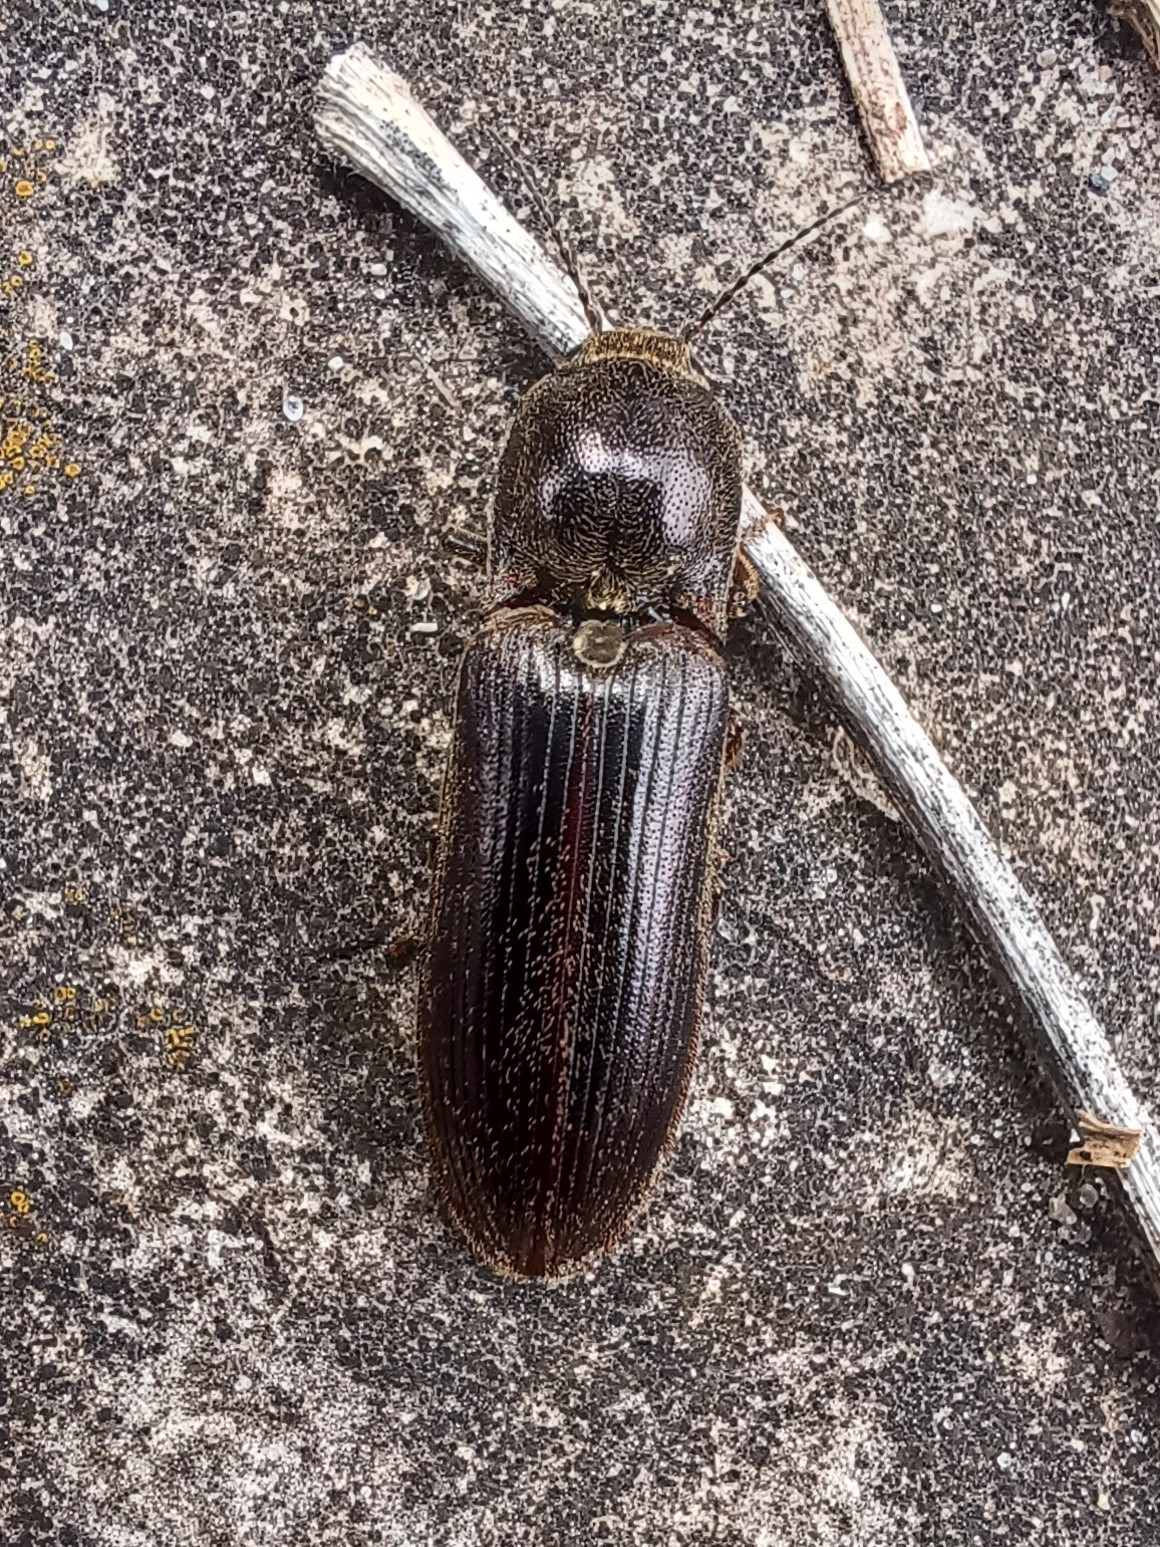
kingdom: Animalia
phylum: Arthropoda
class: Insecta
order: Coleoptera
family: Elateridae
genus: Sylvanelater
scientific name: Sylvanelater cylindriformis
